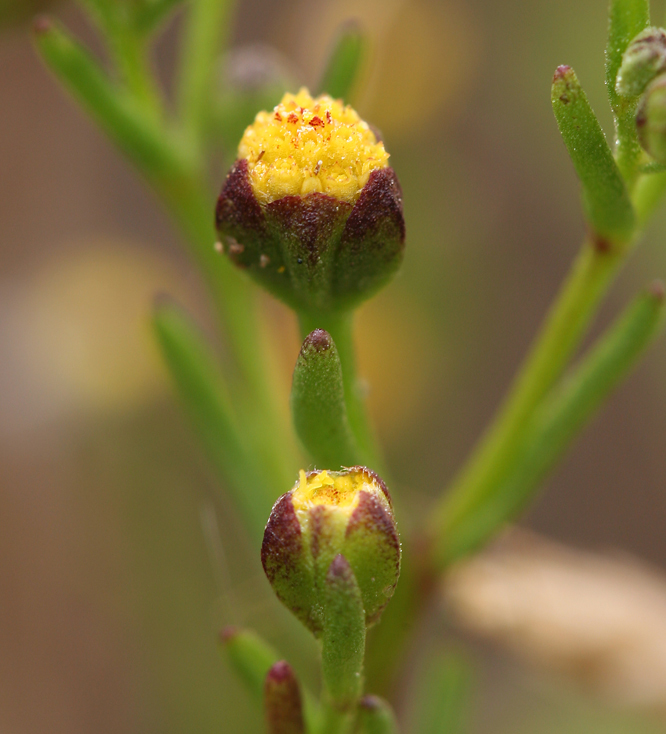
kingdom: Plantae
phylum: Tracheophyta
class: Magnoliopsida
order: Asterales
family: Asteraceae
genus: Amblyopappus
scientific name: Amblyopappus pusillus
